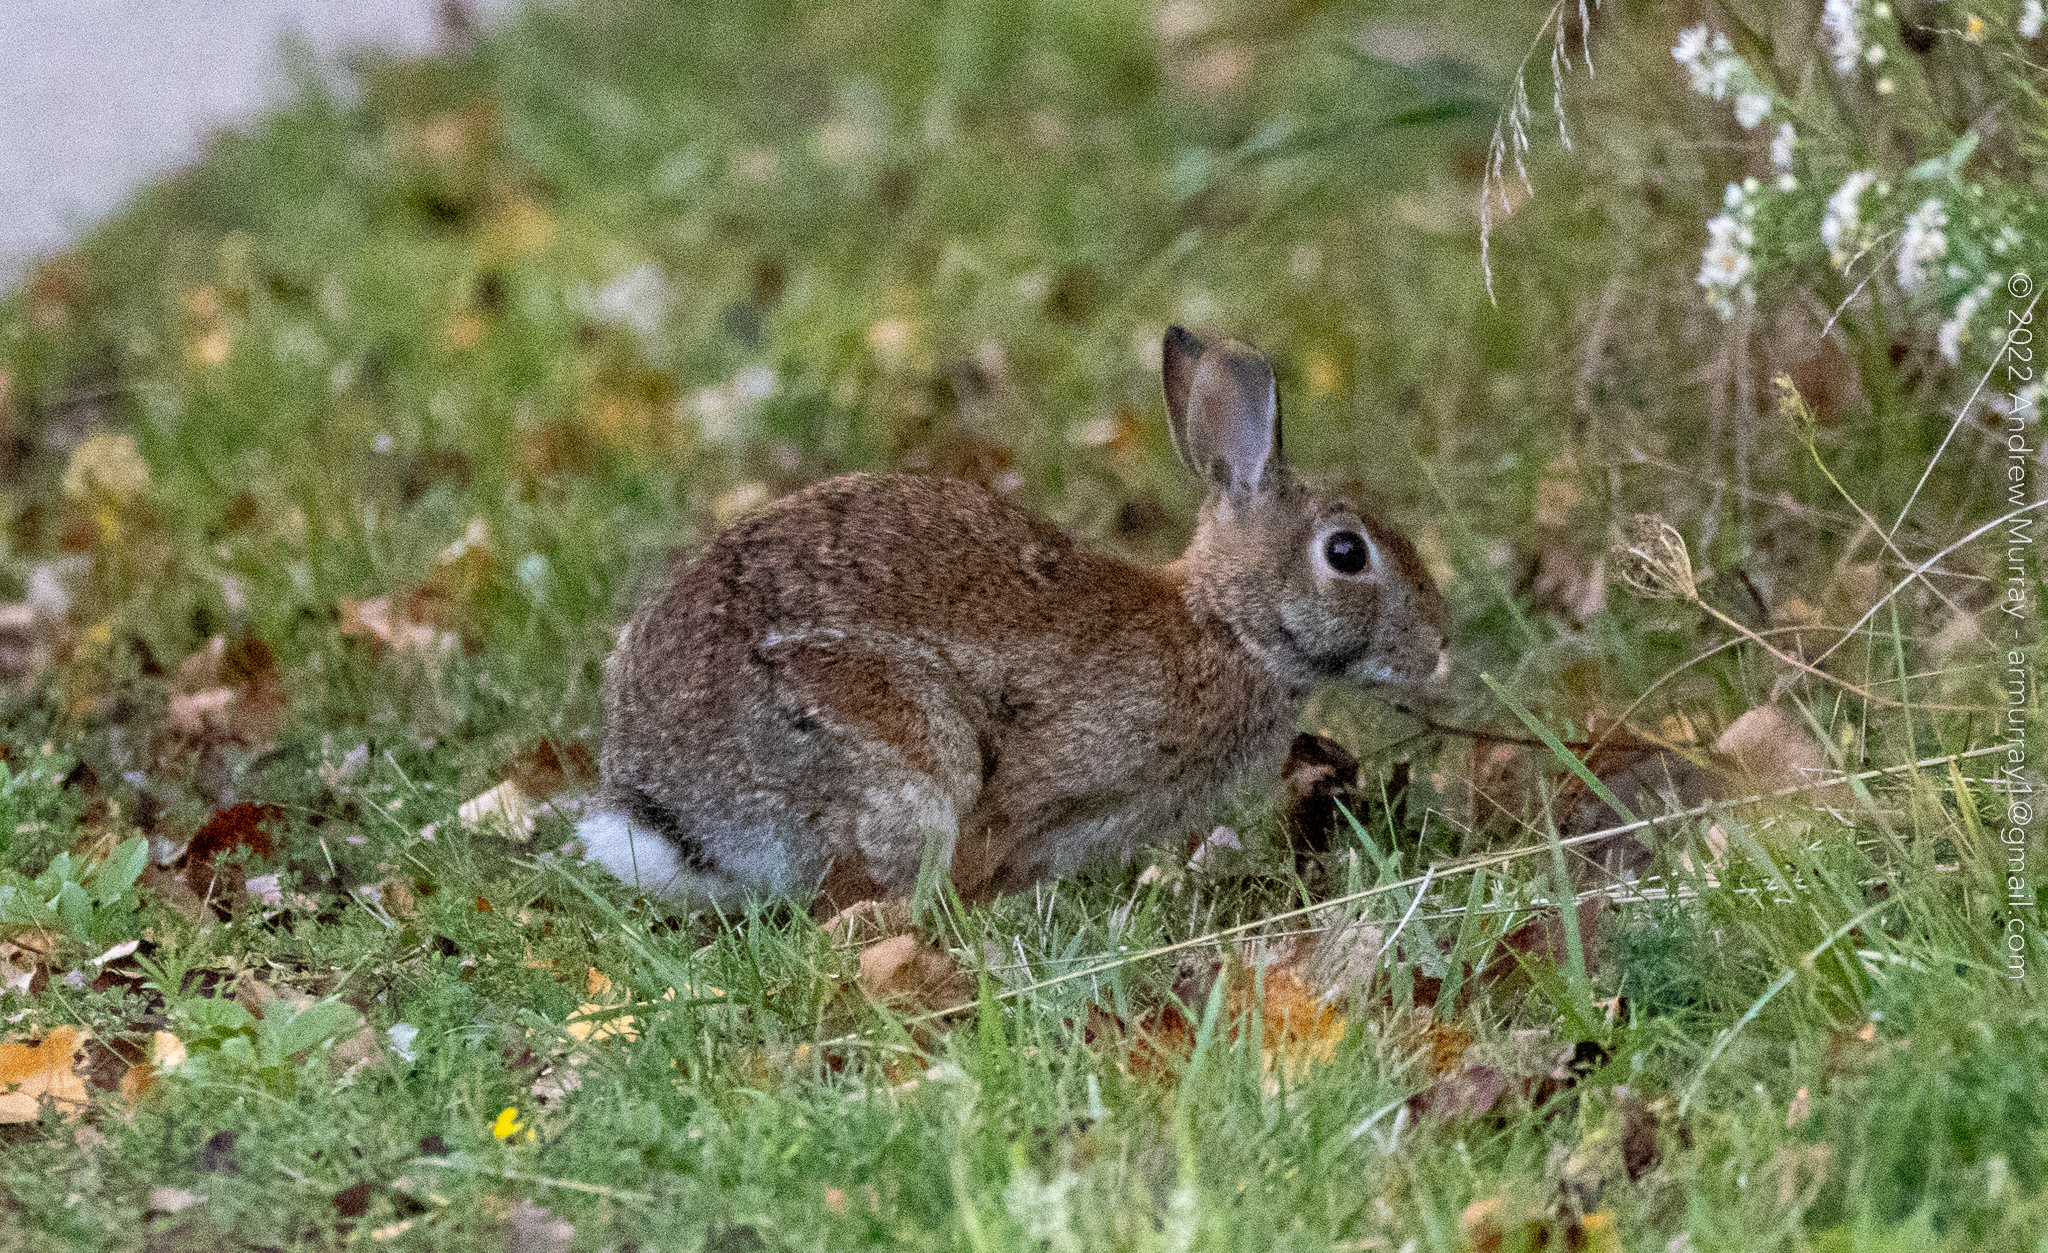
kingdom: Animalia
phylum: Chordata
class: Mammalia
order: Lagomorpha
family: Leporidae
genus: Sylvilagus
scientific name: Sylvilagus floridanus
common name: Eastern cottontail
